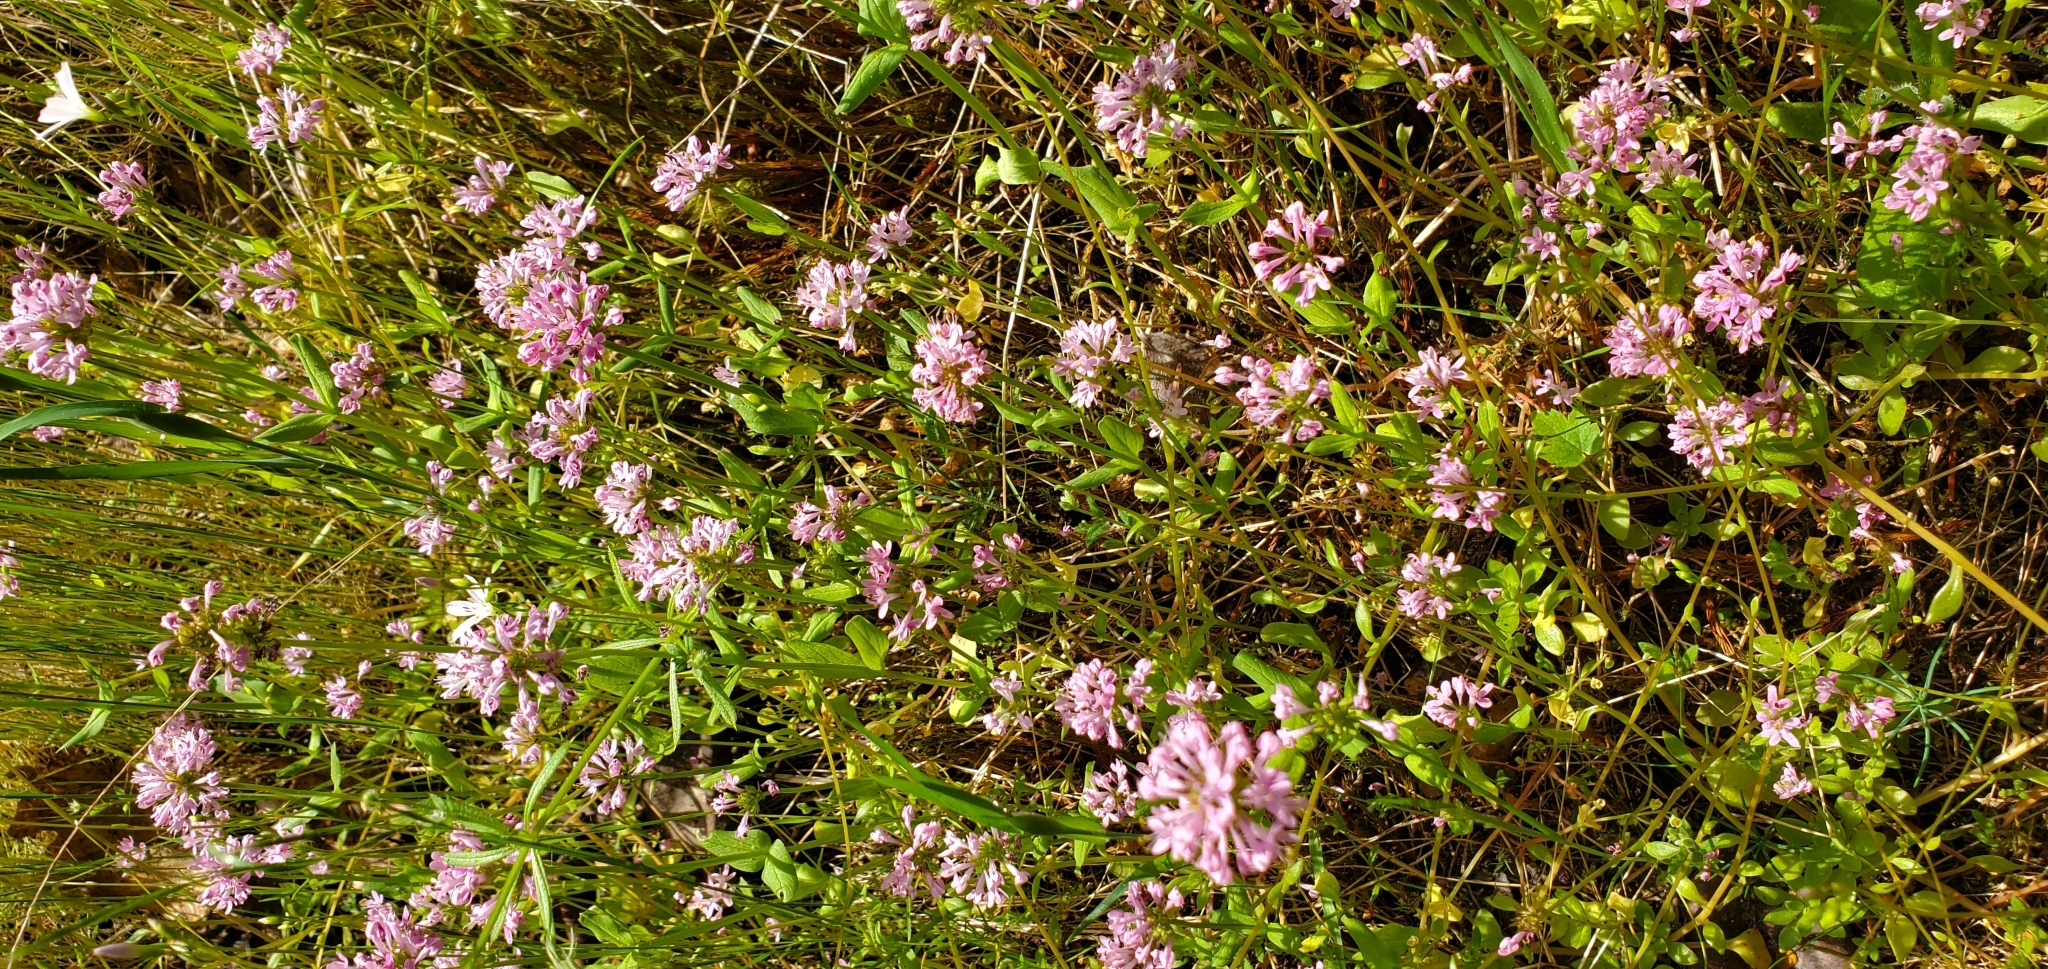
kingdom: Plantae
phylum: Tracheophyta
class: Magnoliopsida
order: Dipsacales
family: Caprifoliaceae
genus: Plectritis
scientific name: Plectritis congesta
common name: Pink plectritis
